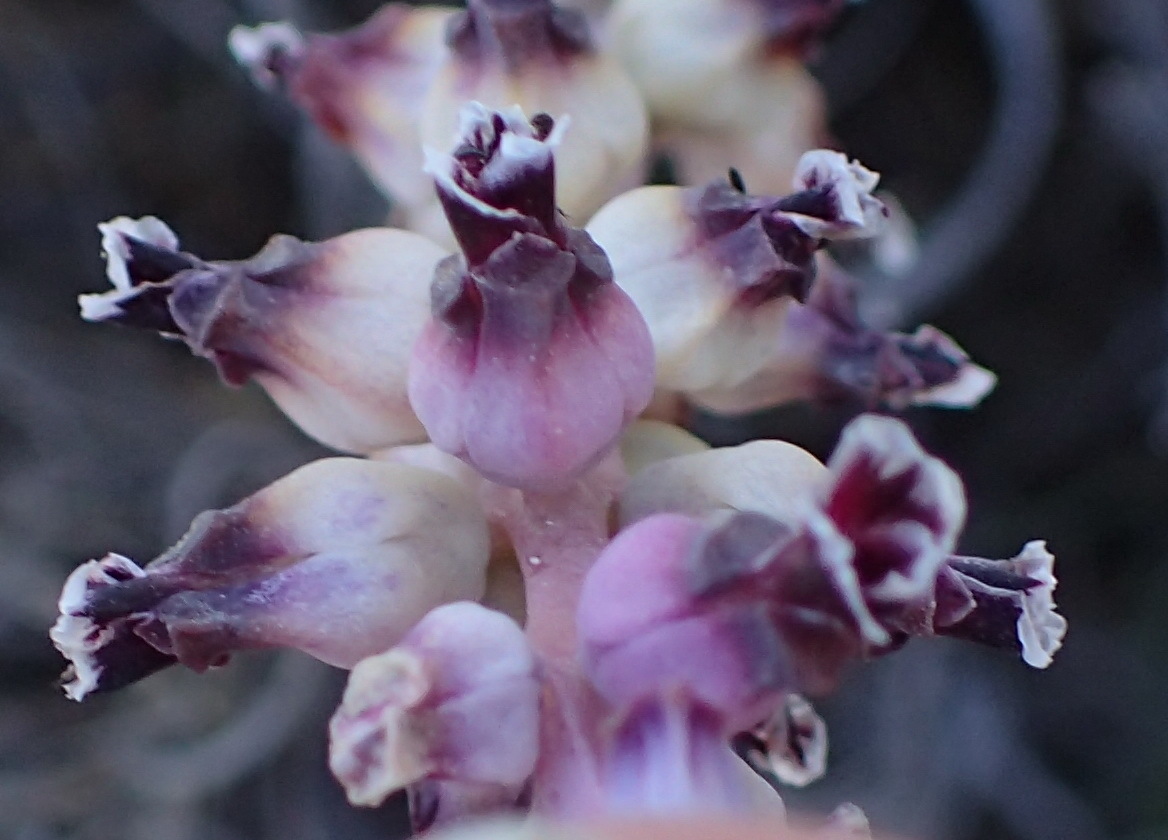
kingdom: Plantae
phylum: Tracheophyta
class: Liliopsida
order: Asparagales
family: Asparagaceae
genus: Lachenalia
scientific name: Lachenalia suaveolens
